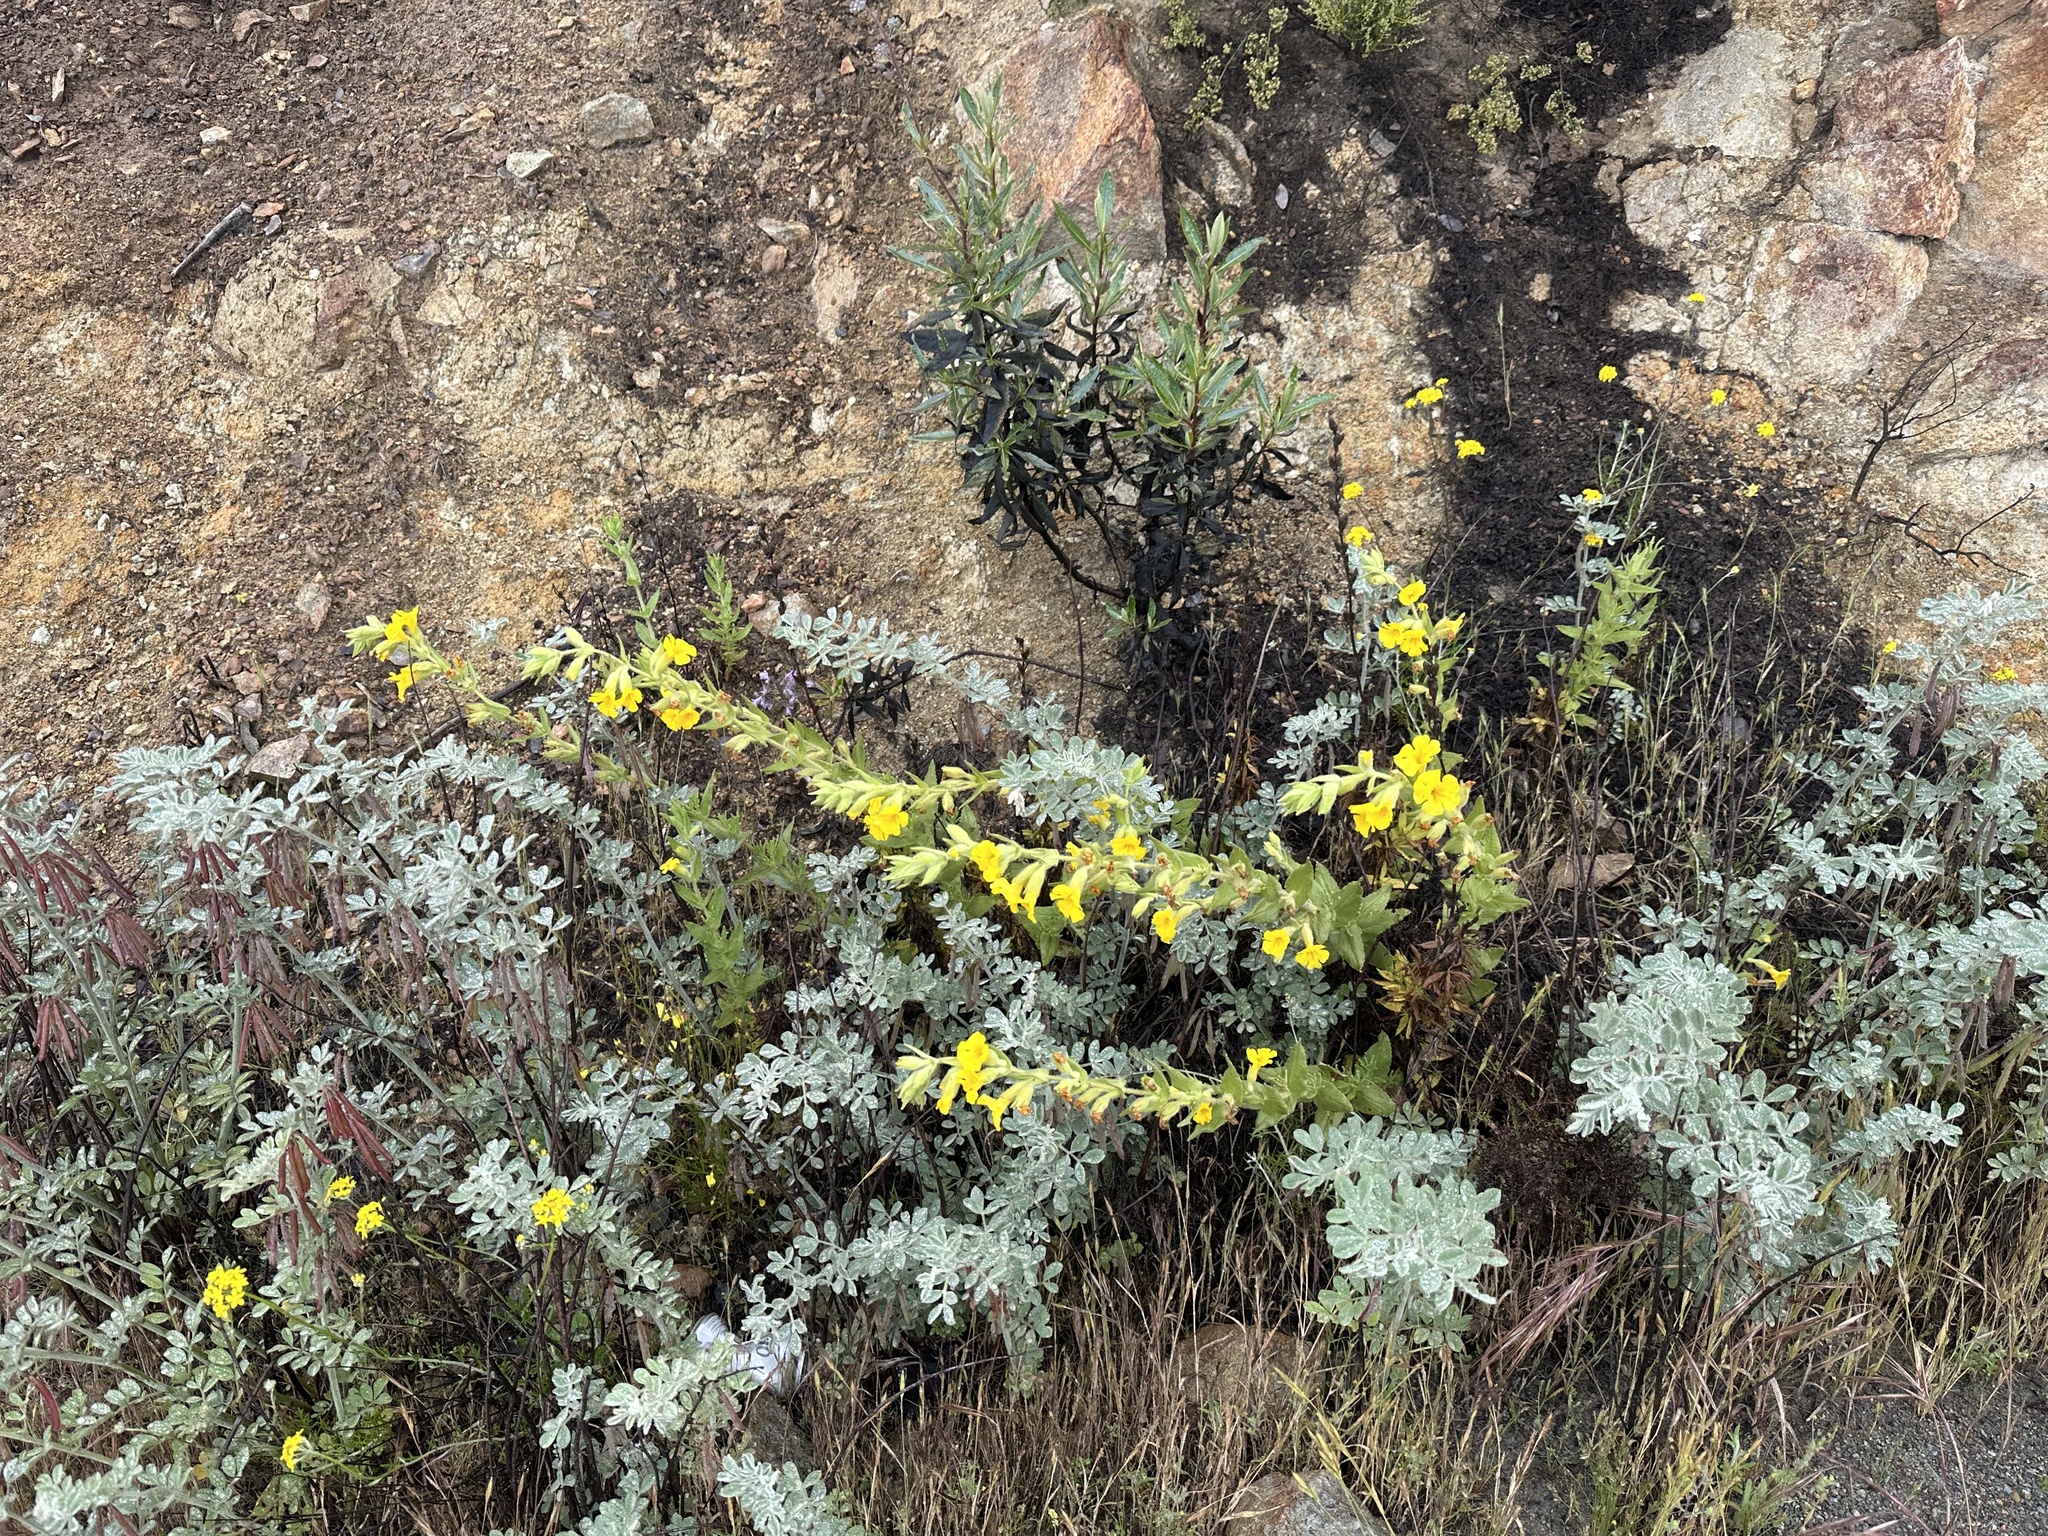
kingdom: Plantae
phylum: Tracheophyta
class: Magnoliopsida
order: Lamiales
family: Phrymaceae
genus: Diplacus
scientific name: Diplacus clevelandii
